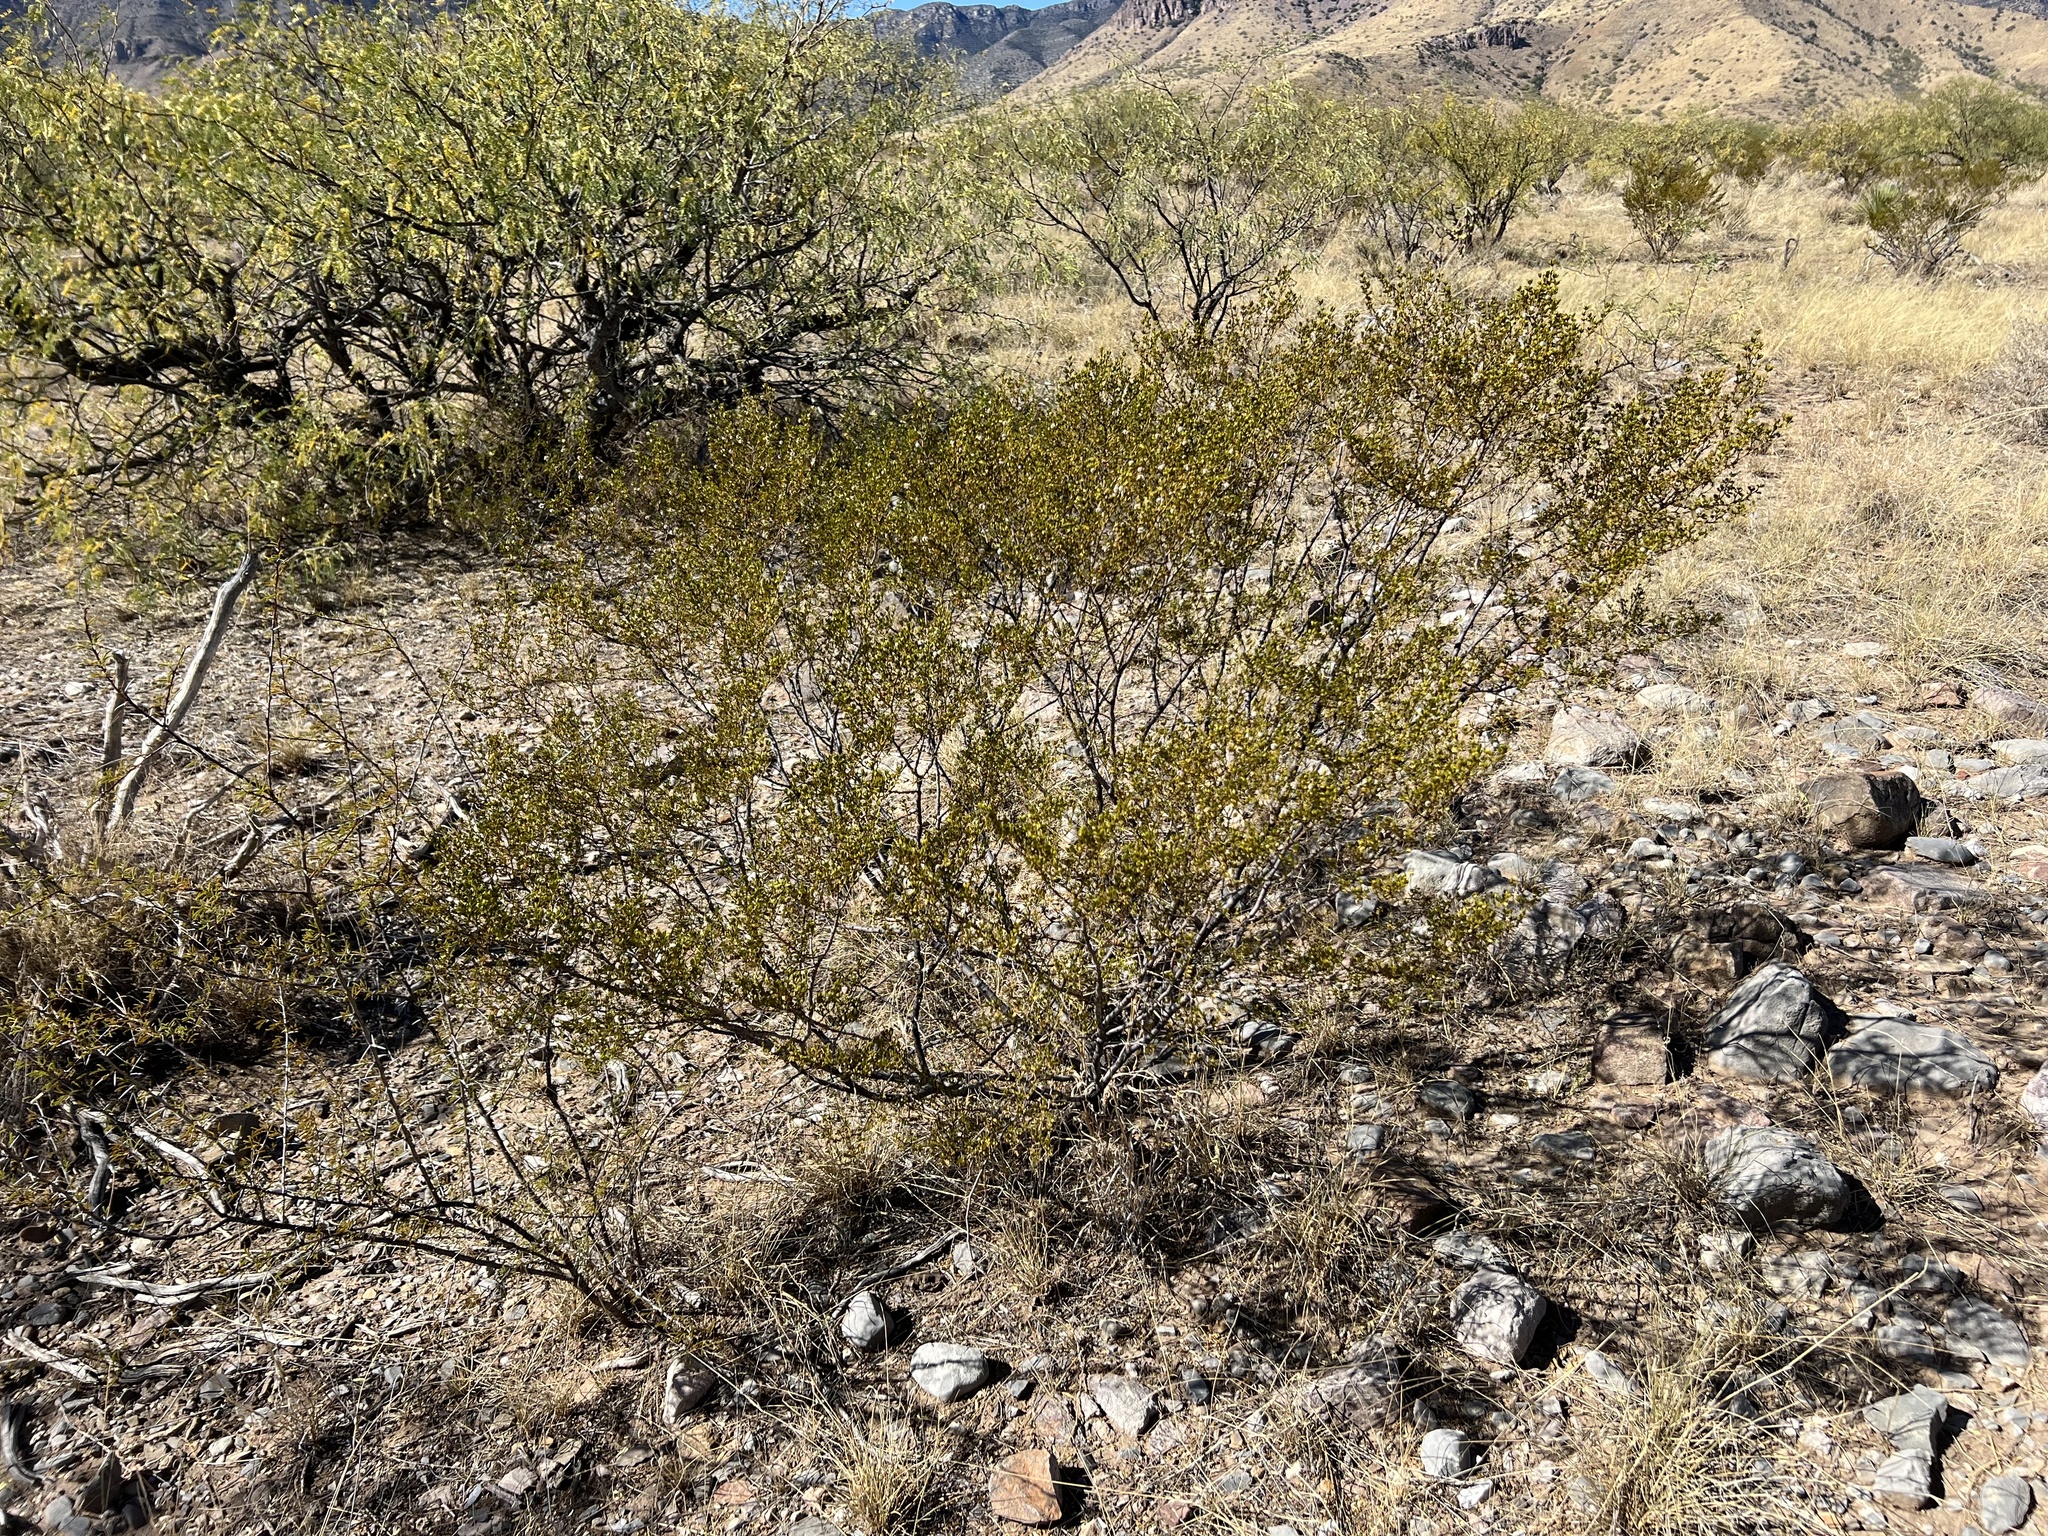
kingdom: Plantae
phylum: Tracheophyta
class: Magnoliopsida
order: Zygophyllales
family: Zygophyllaceae
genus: Larrea
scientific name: Larrea tridentata
